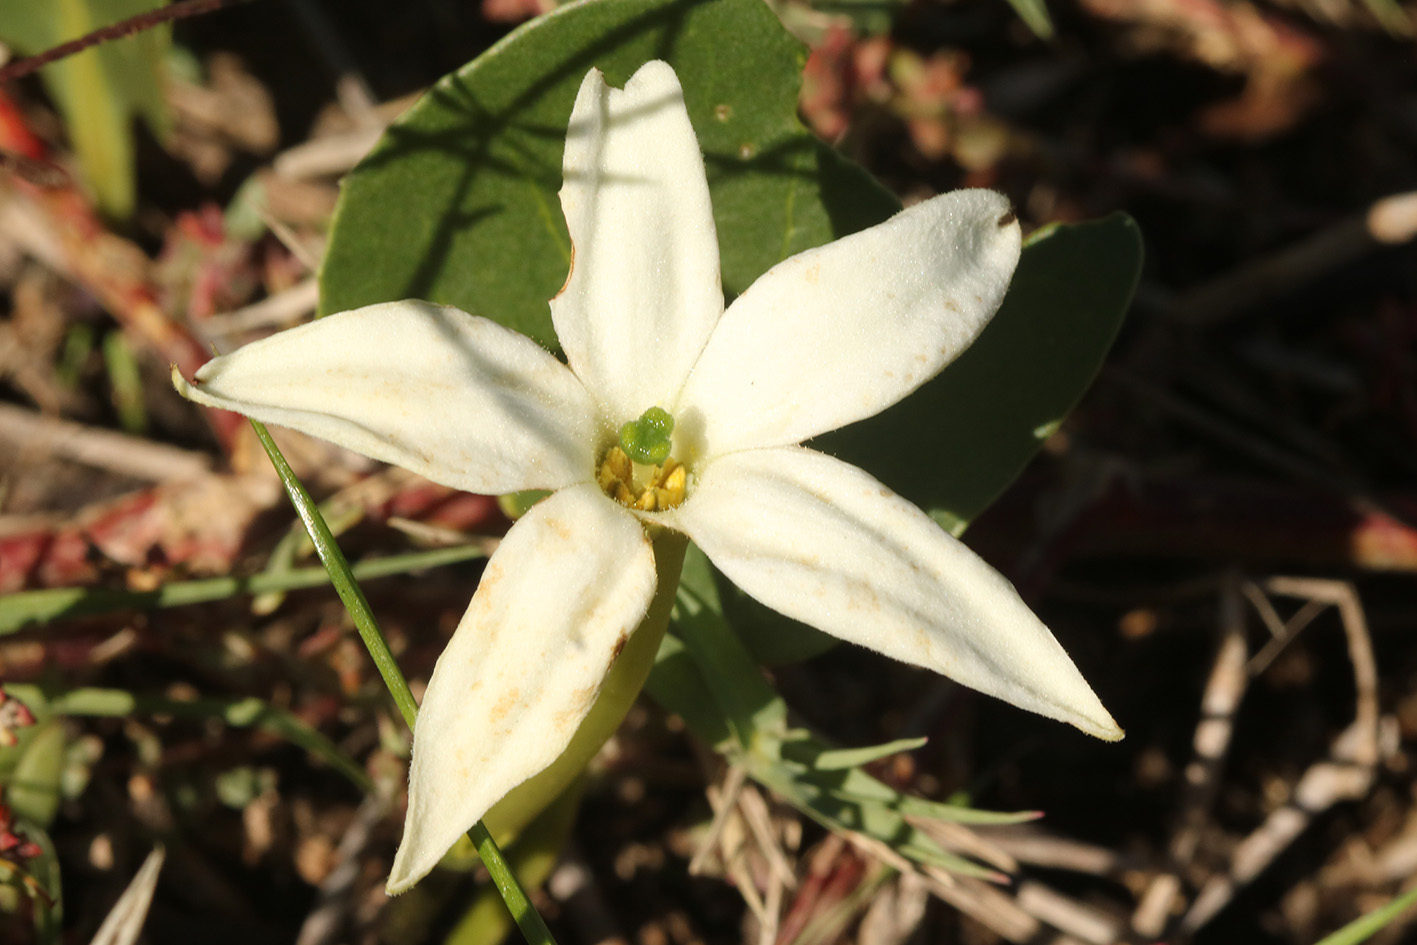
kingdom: Plantae
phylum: Tracheophyta
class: Magnoliopsida
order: Solanales
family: Solanaceae
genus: Jaborosa
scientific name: Jaborosa integrifolia
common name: Springblossom
